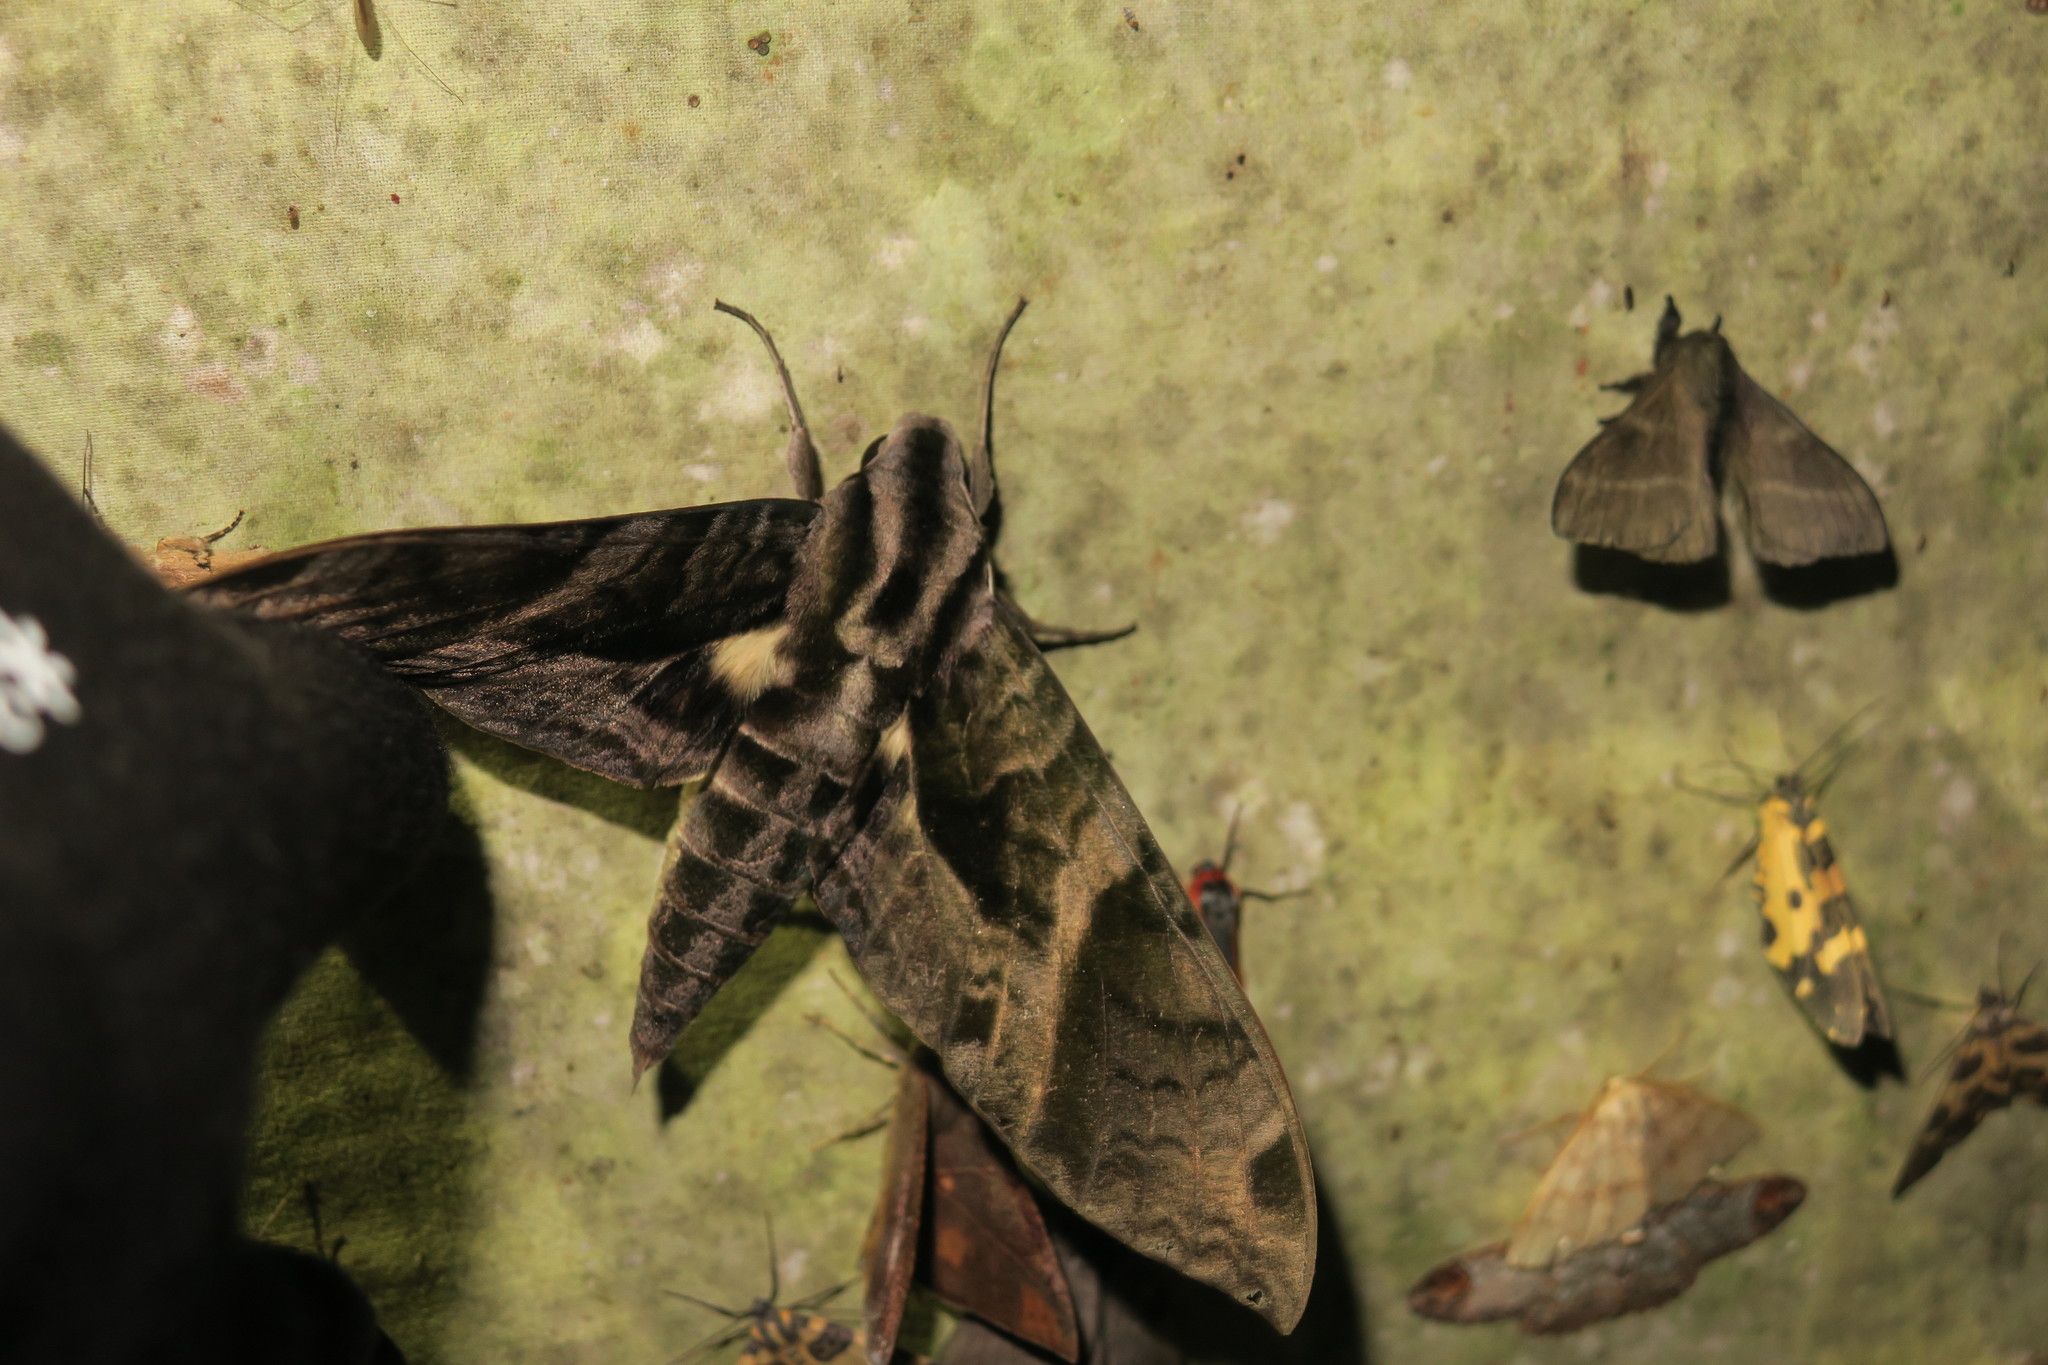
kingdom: Animalia
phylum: Arthropoda
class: Insecta
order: Lepidoptera
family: Sphingidae
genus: Eumorpha
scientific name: Eumorpha cissi
